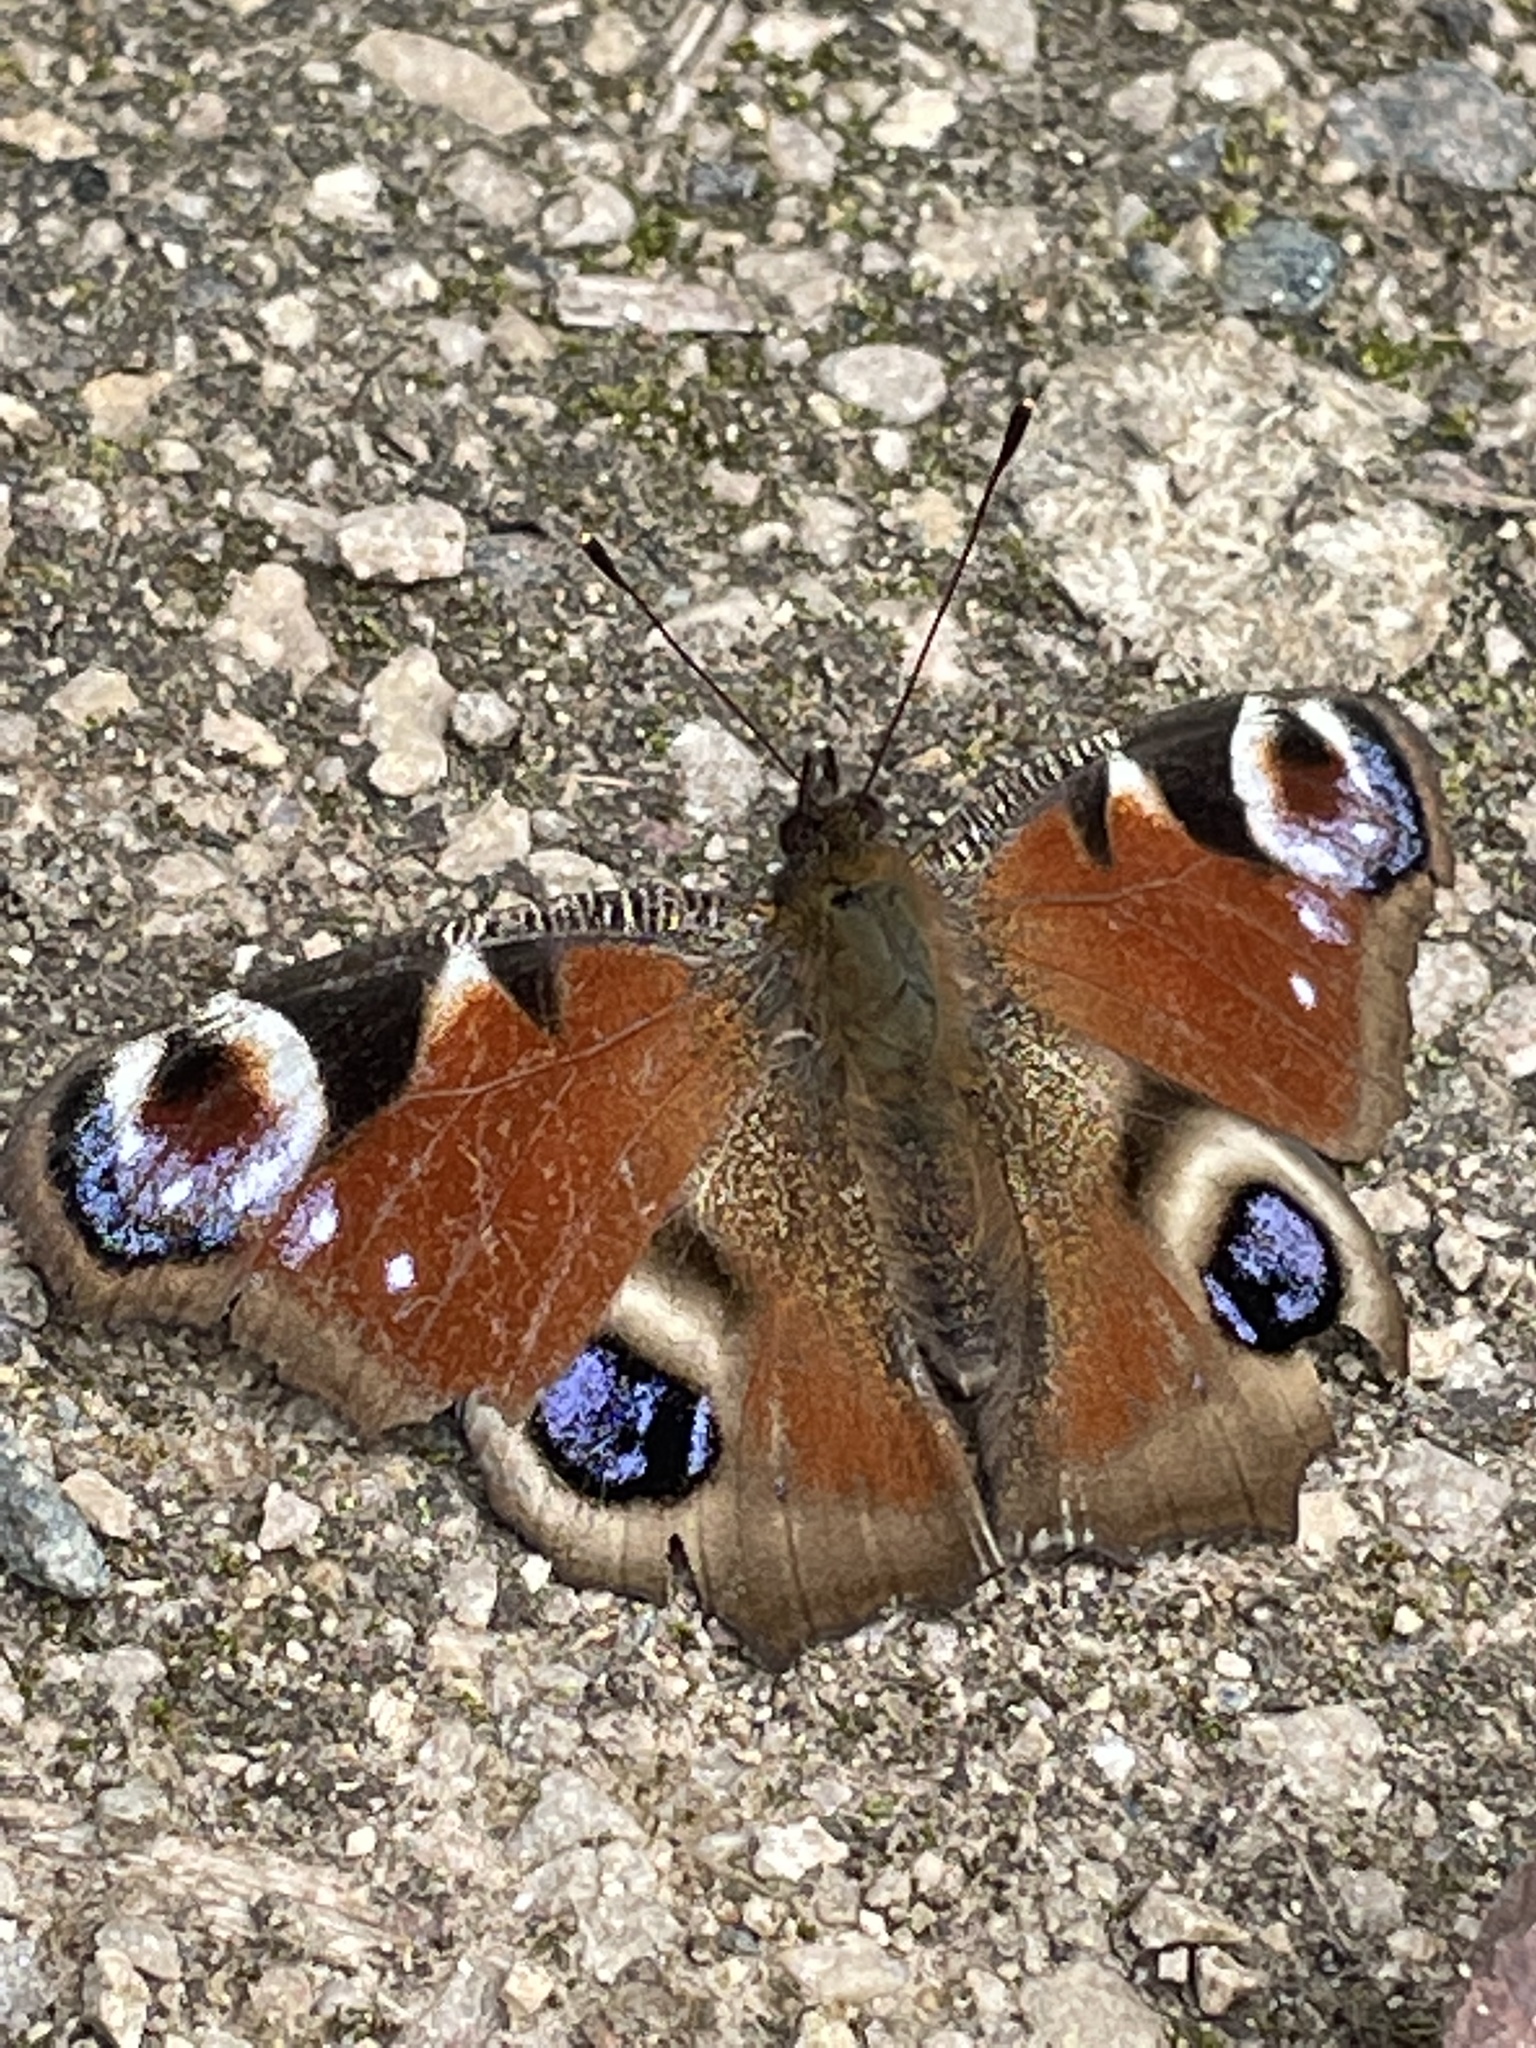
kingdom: Animalia
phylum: Arthropoda
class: Insecta
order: Lepidoptera
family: Nymphalidae
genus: Aglais
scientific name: Aglais io
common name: Peacock
